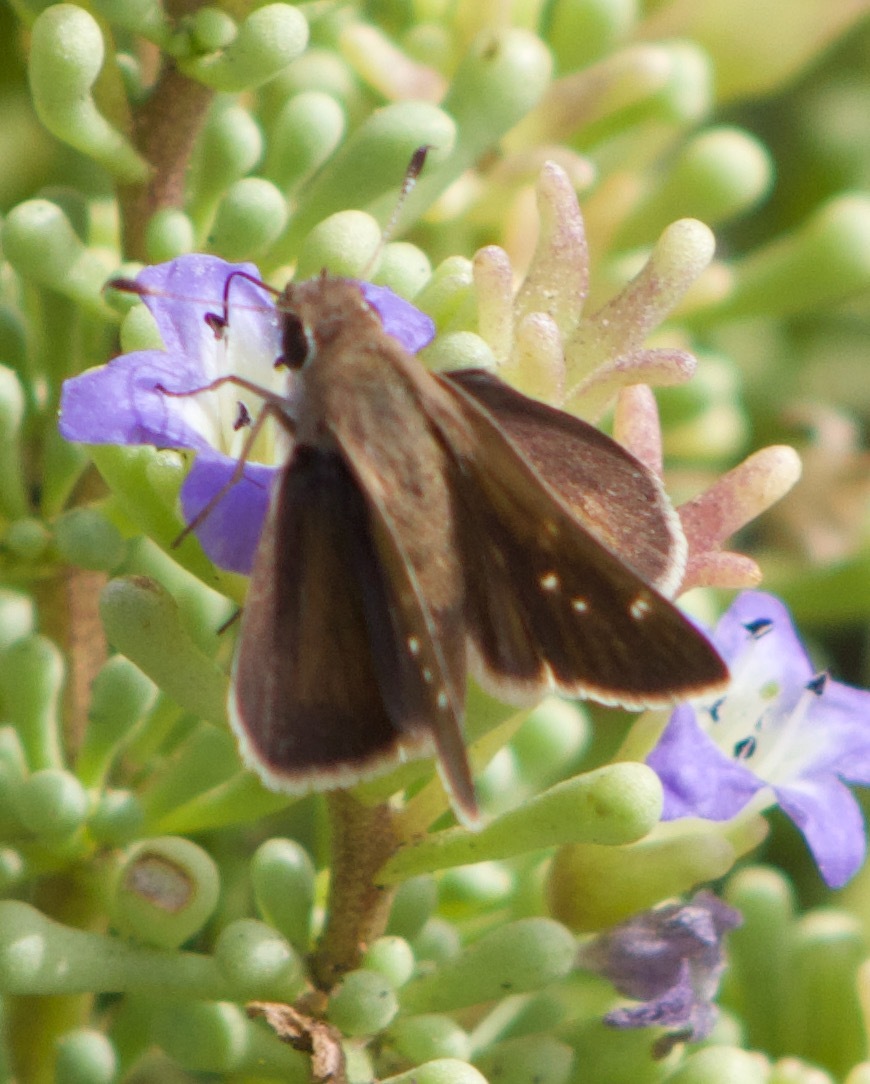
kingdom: Animalia
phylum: Arthropoda
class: Insecta
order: Lepidoptera
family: Hesperiidae
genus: Lerodea
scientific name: Lerodea eufala
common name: Eufala skipper
